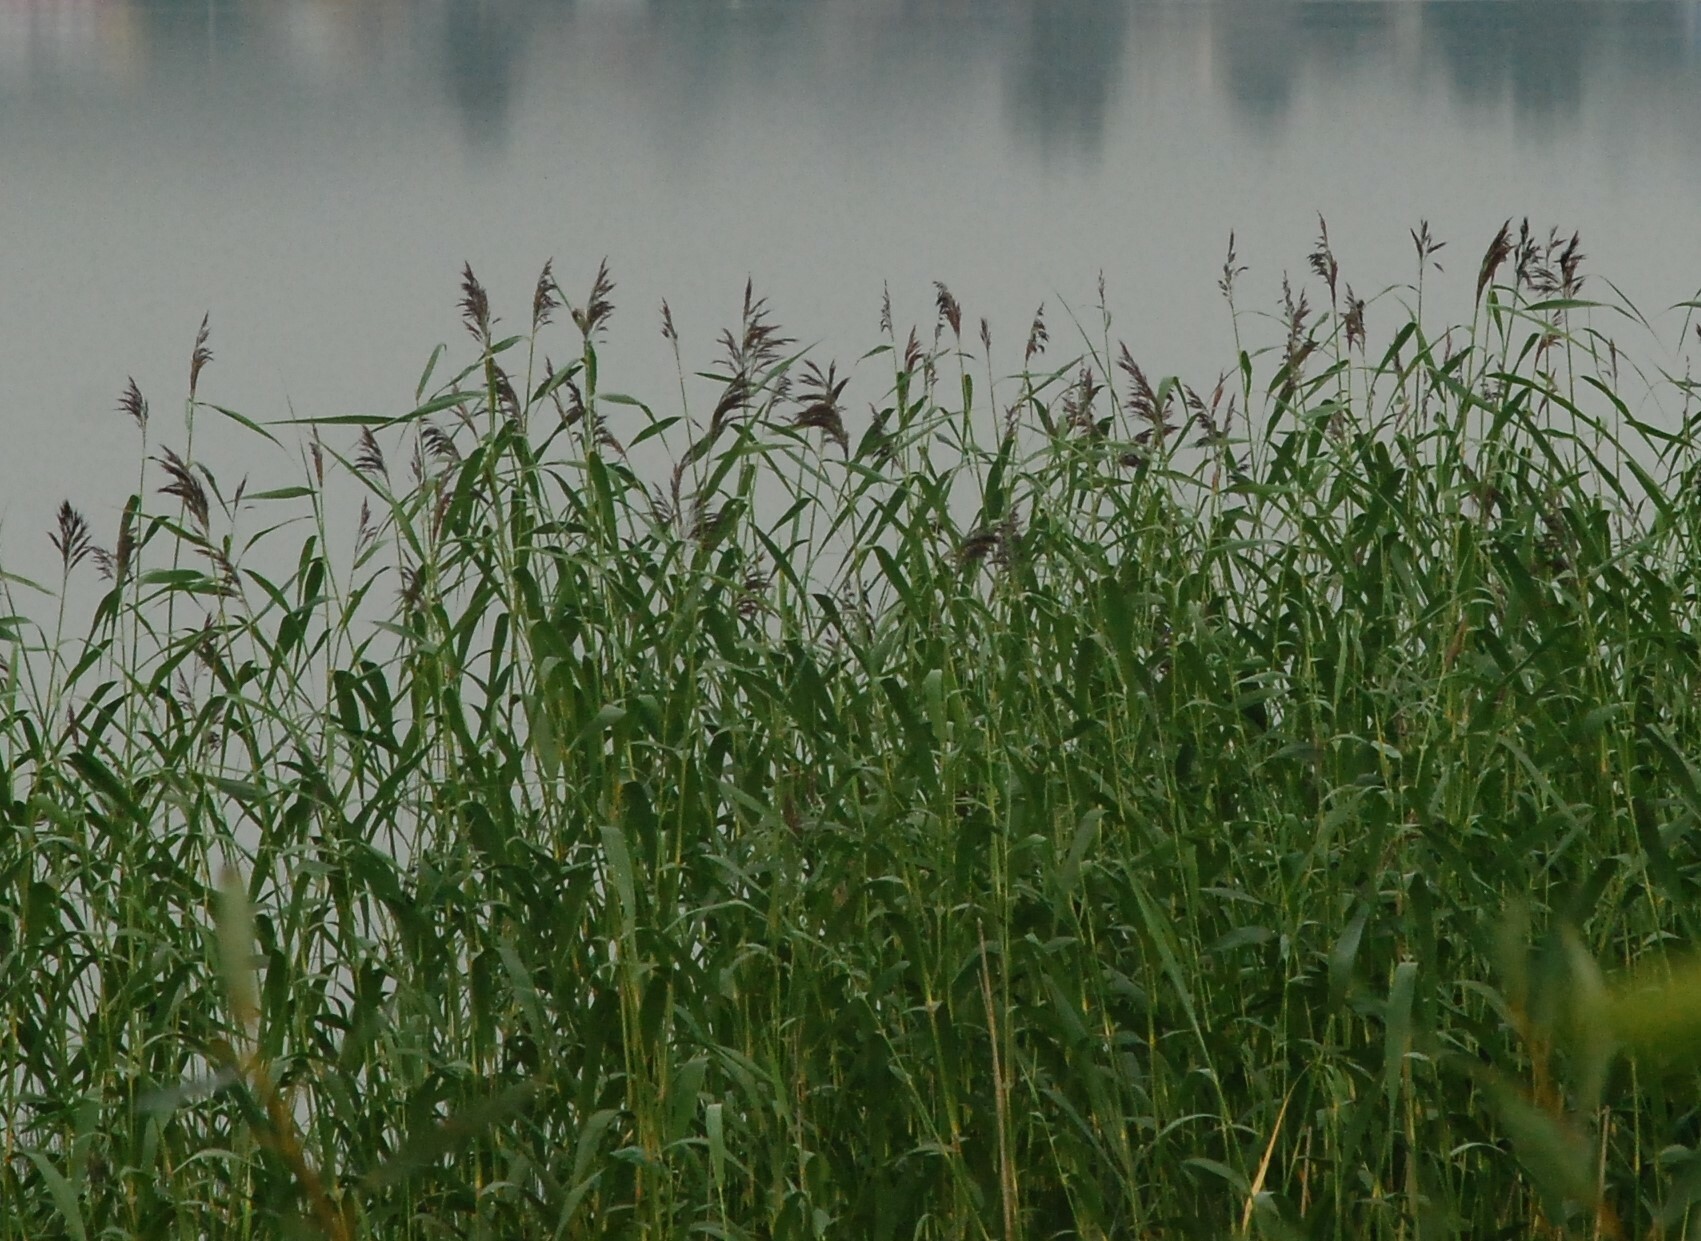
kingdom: Plantae
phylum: Tracheophyta
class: Liliopsida
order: Poales
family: Poaceae
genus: Phragmites
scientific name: Phragmites australis
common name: Common reed
